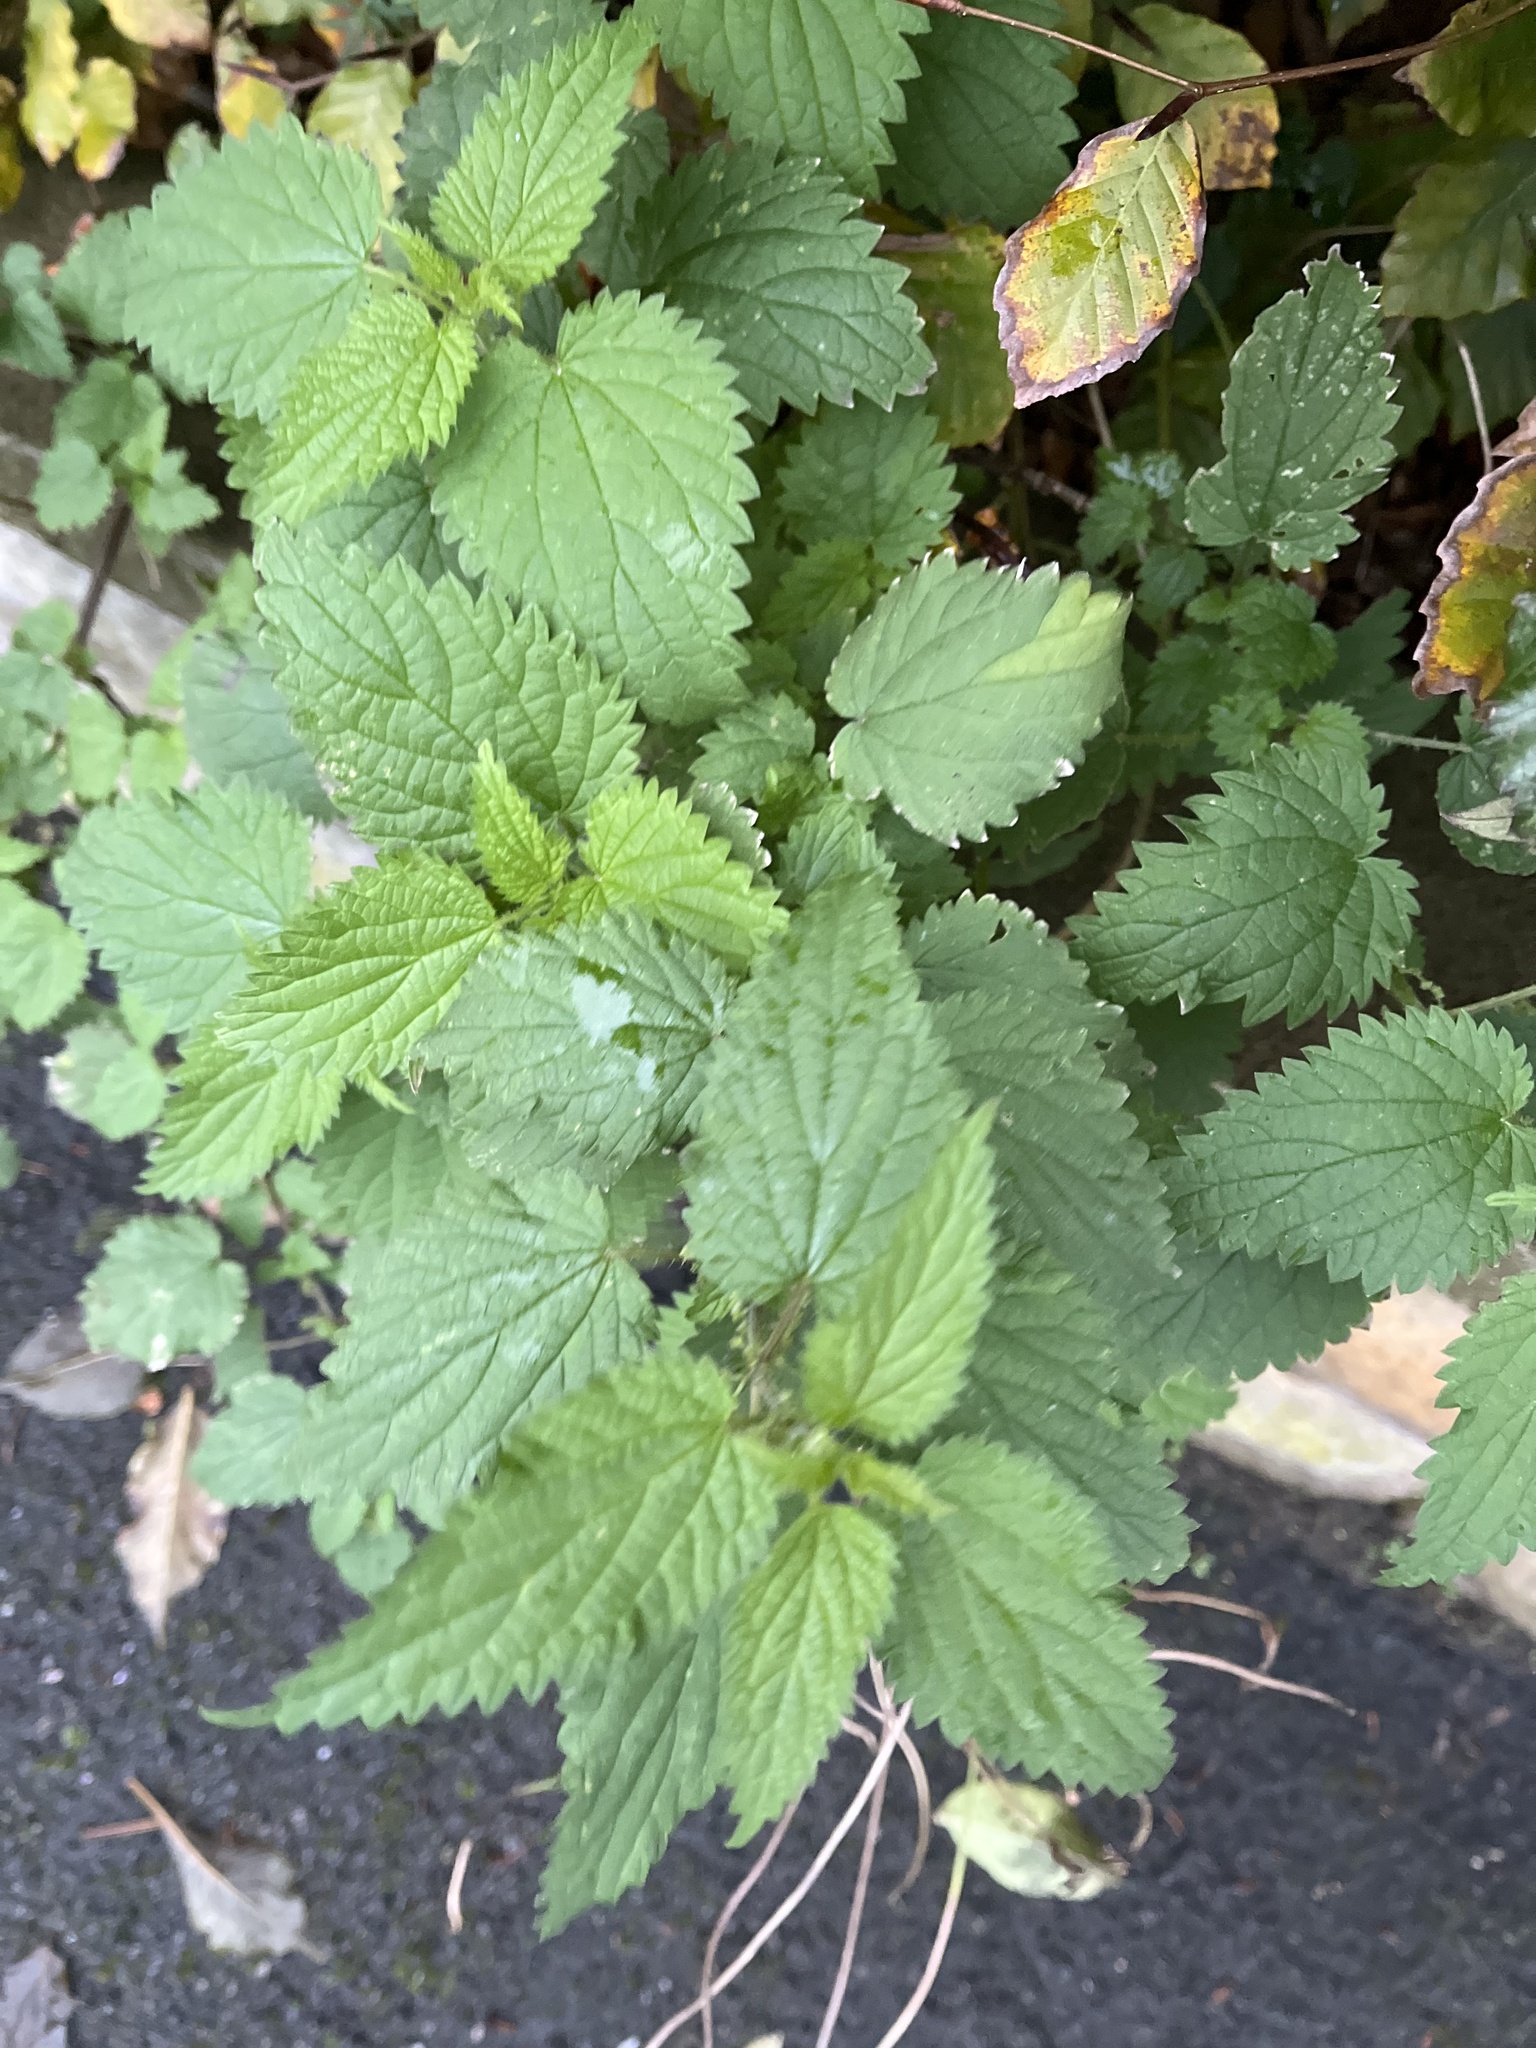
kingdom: Plantae
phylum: Tracheophyta
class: Magnoliopsida
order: Rosales
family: Urticaceae
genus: Urtica
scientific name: Urtica dioica
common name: Common nettle
